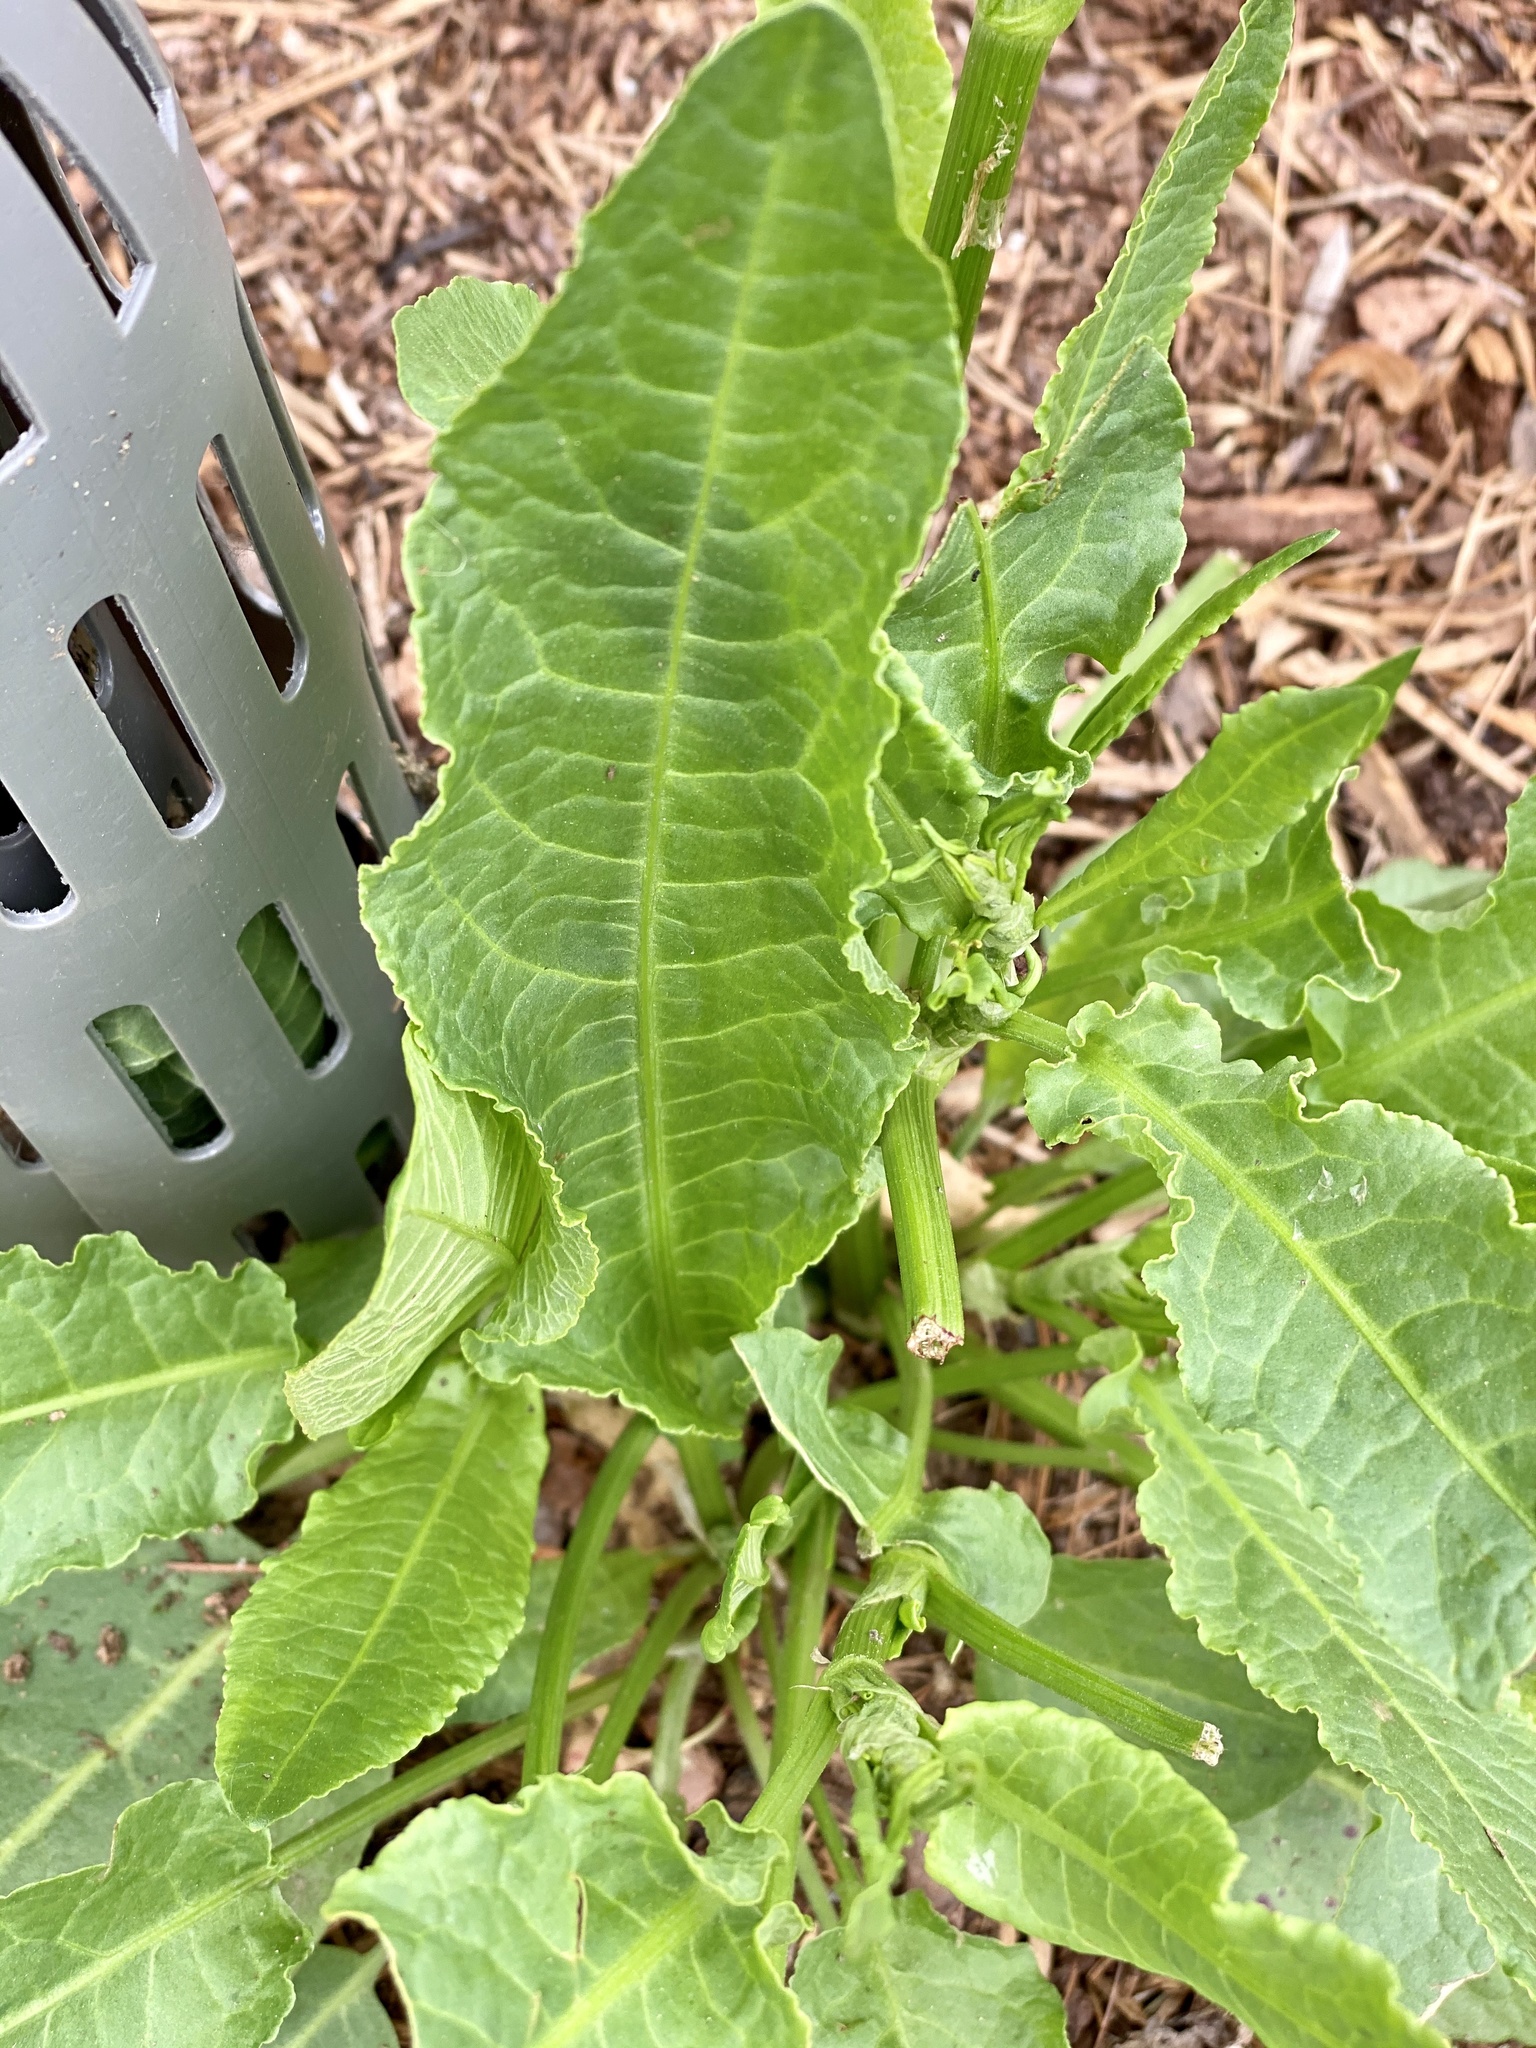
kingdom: Plantae
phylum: Tracheophyta
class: Magnoliopsida
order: Caryophyllales
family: Polygonaceae
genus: Rumex
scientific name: Rumex crispus
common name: Curled dock
